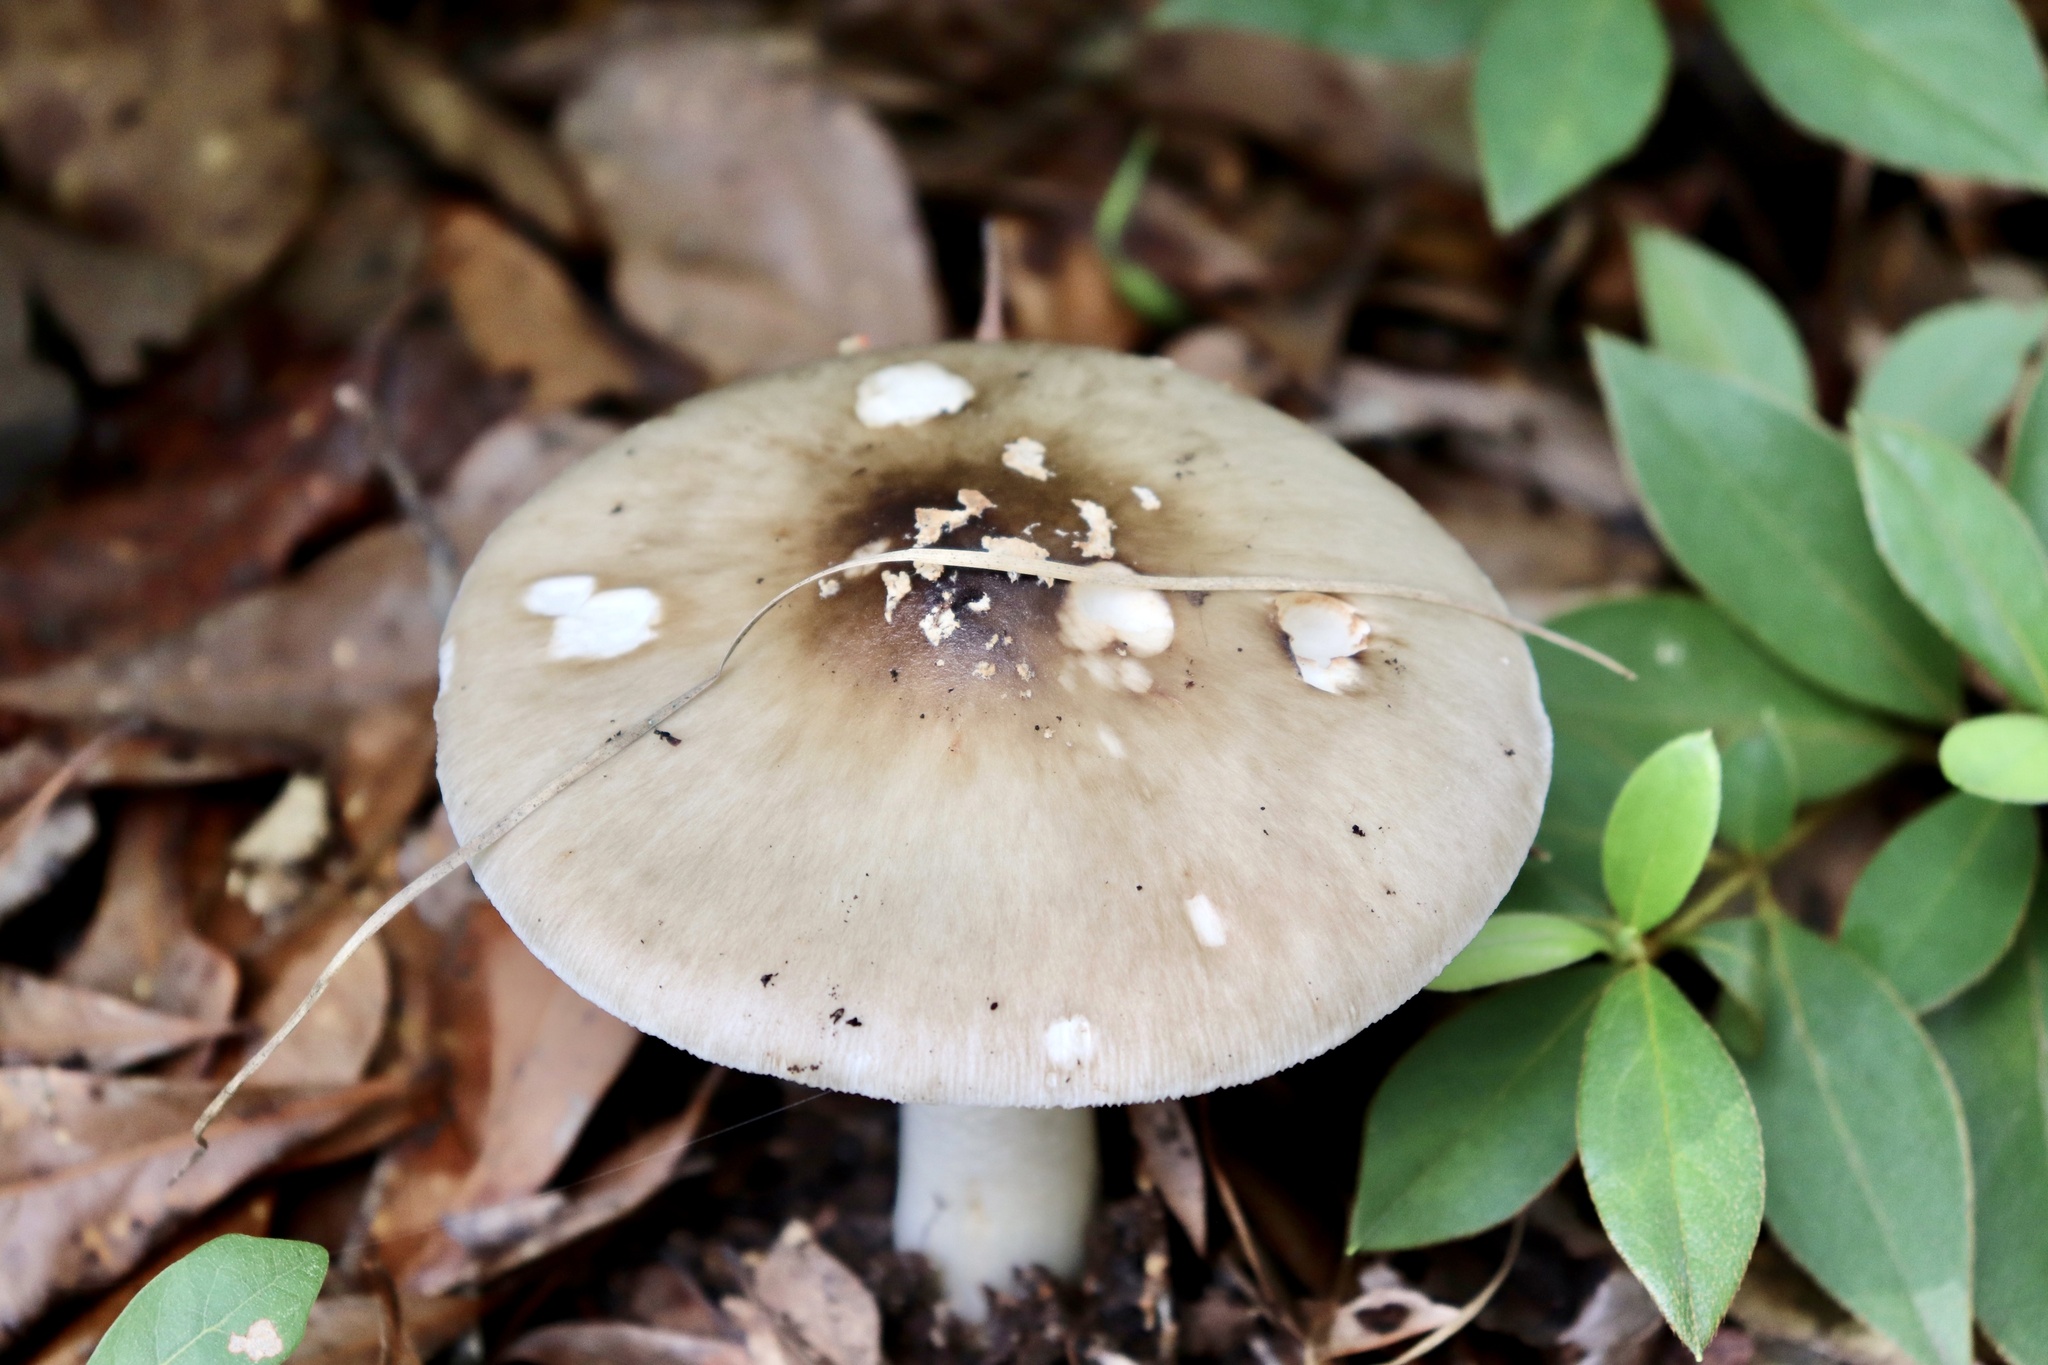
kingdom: Fungi
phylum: Basidiomycota
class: Agaricomycetes
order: Agaricales
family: Amanitaceae
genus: Amanita
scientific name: Amanita brunnescens
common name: Brown american star-footed amanita
